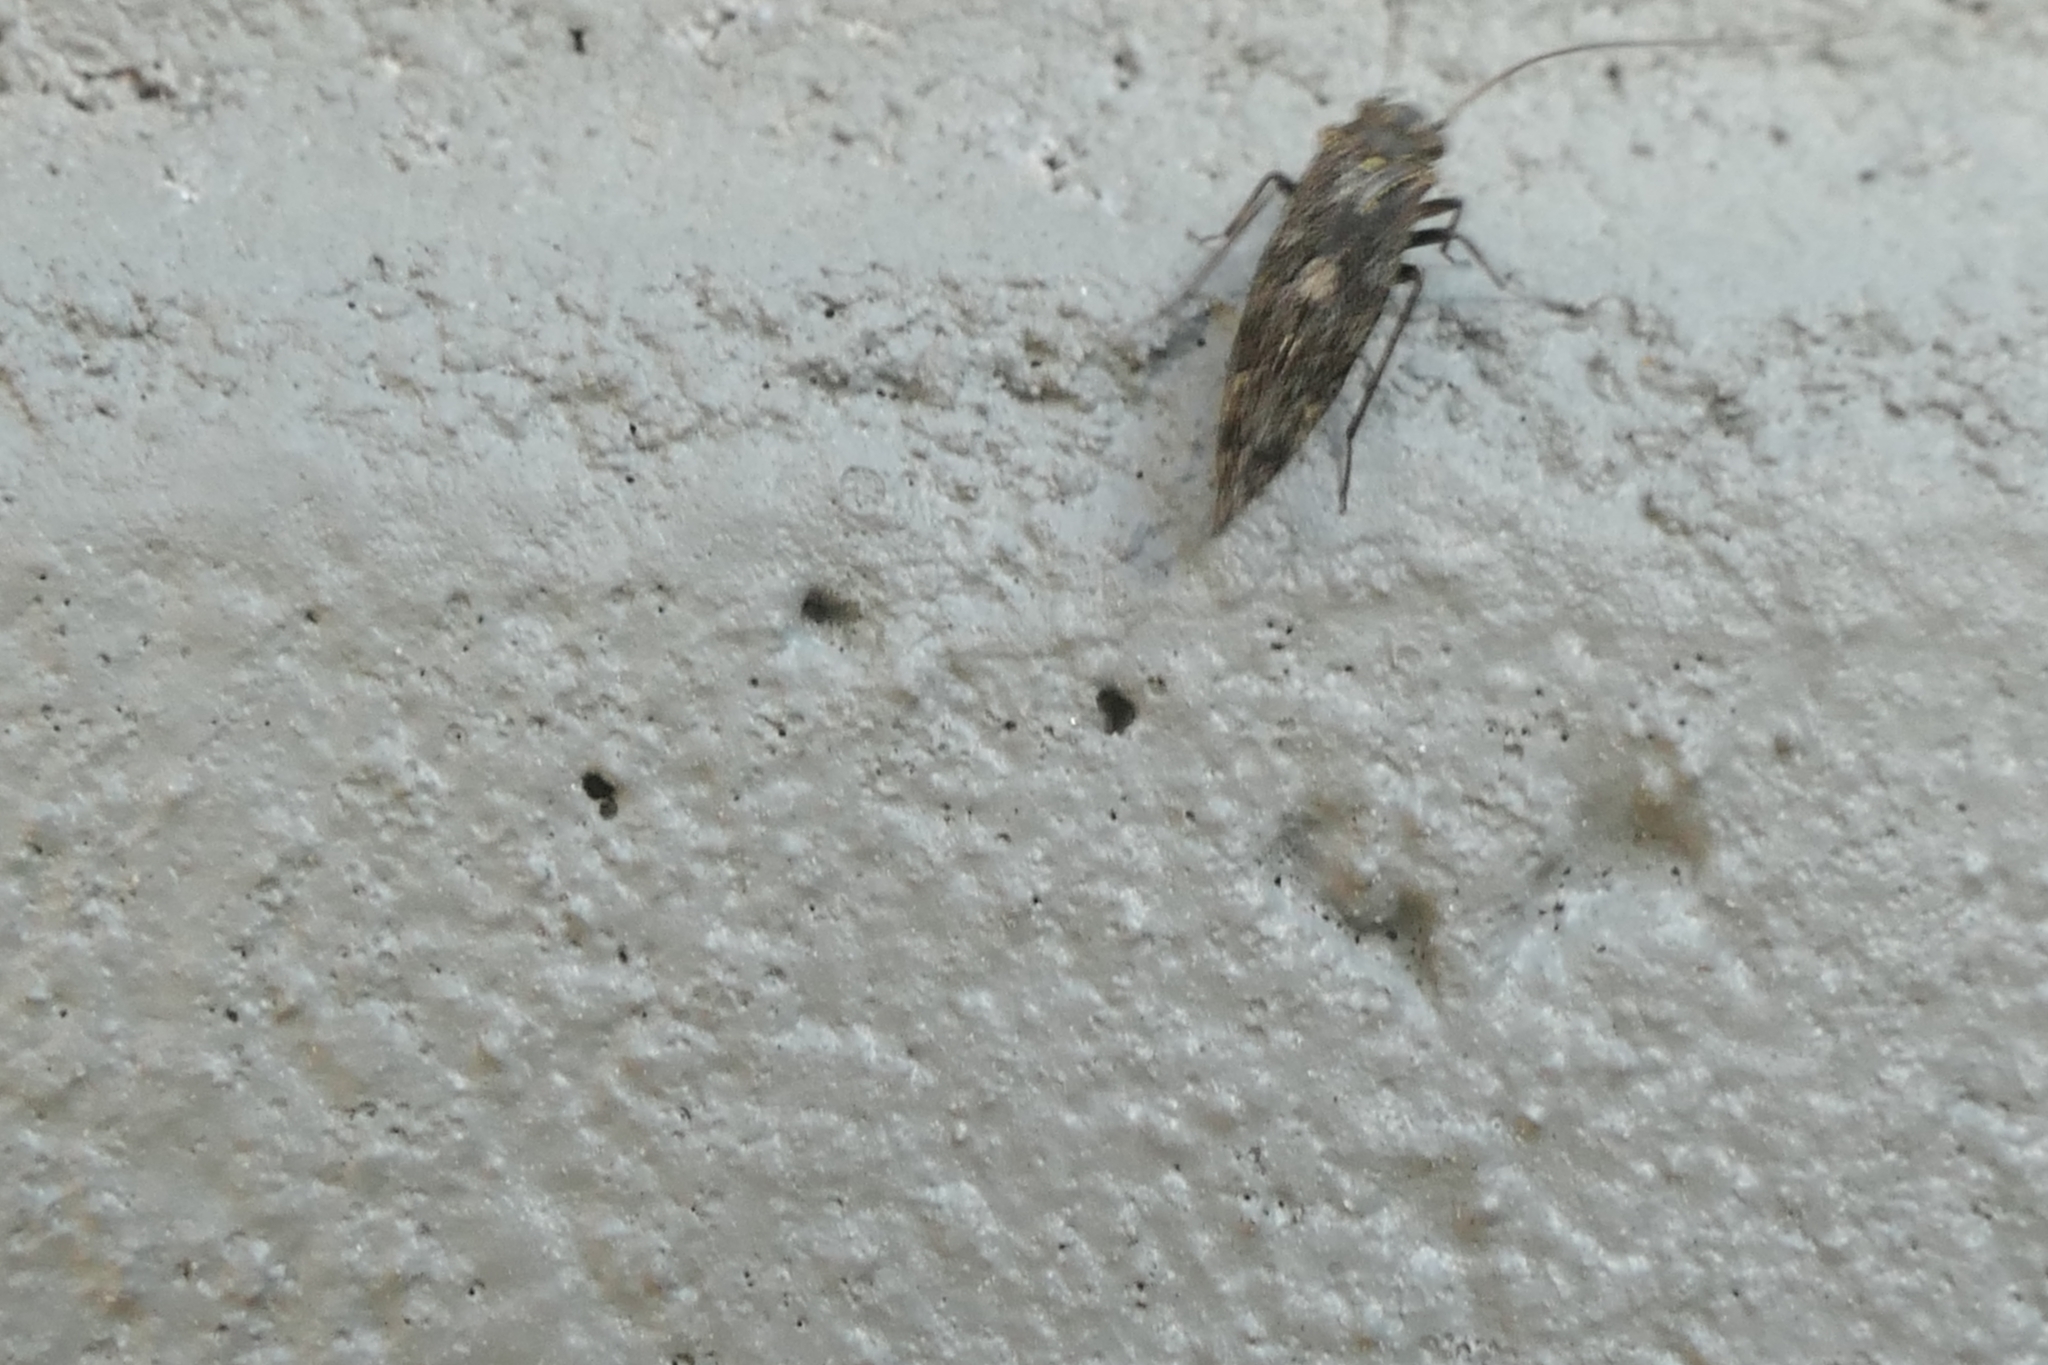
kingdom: Animalia
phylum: Arthropoda
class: Insecta
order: Psocodea
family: Myopsocidae
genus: Nimbopsocus
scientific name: Nimbopsocus australis
